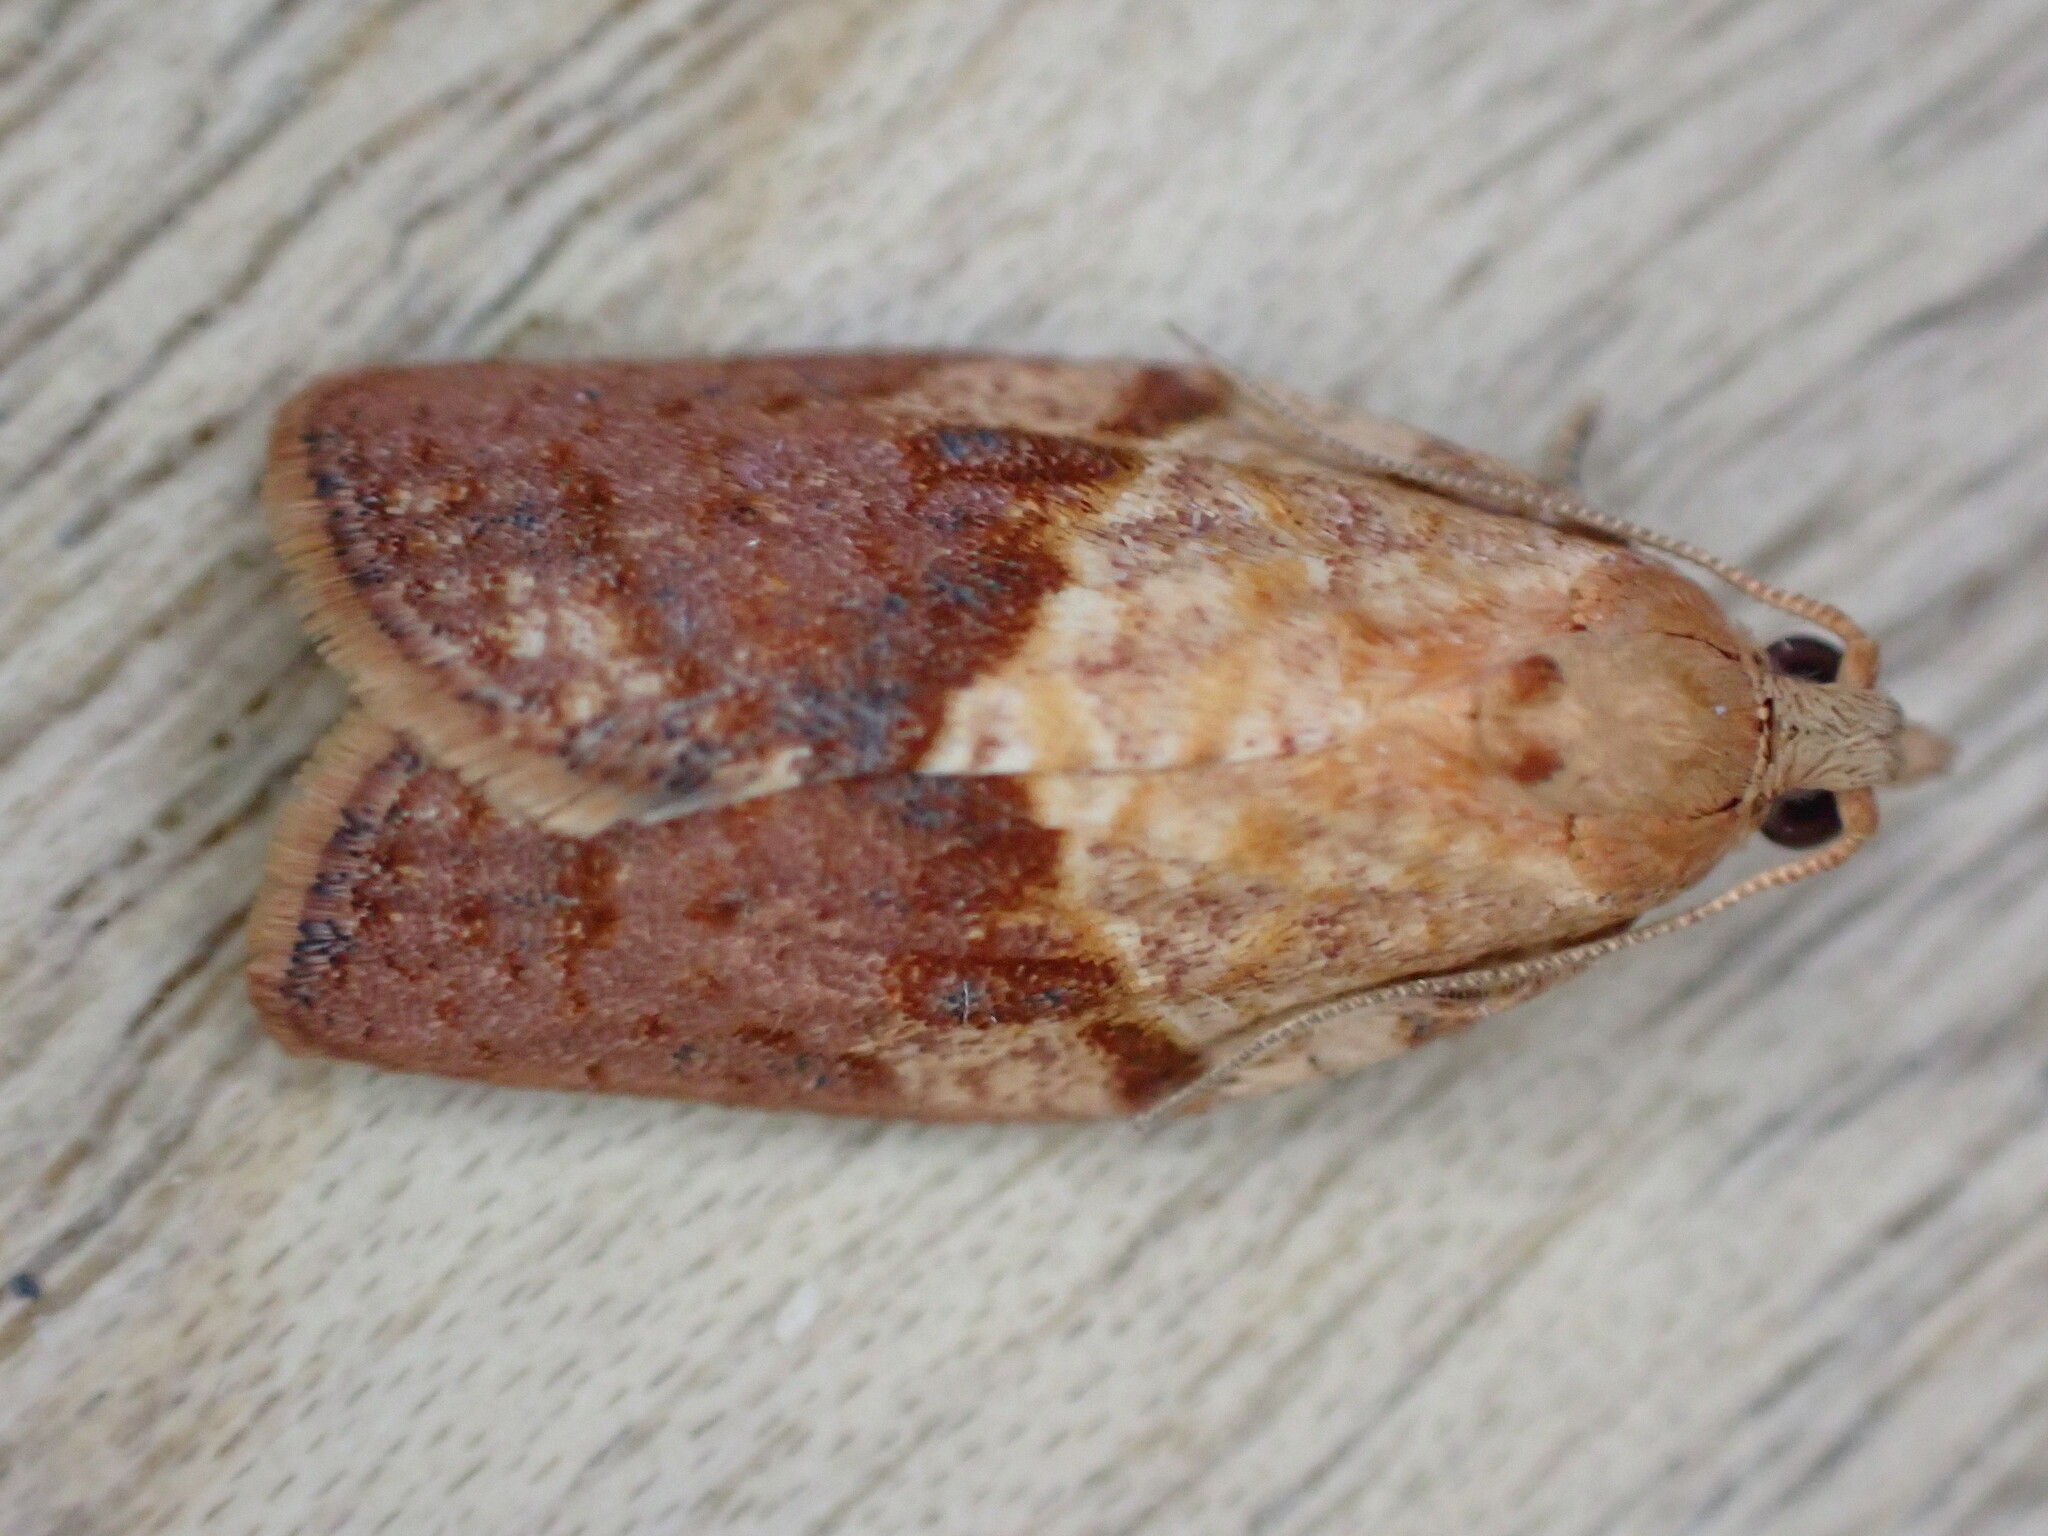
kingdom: Animalia
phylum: Arthropoda
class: Insecta
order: Lepidoptera
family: Tortricidae
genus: Epiphyas
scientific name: Epiphyas postvittana
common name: Light brown apple moth
